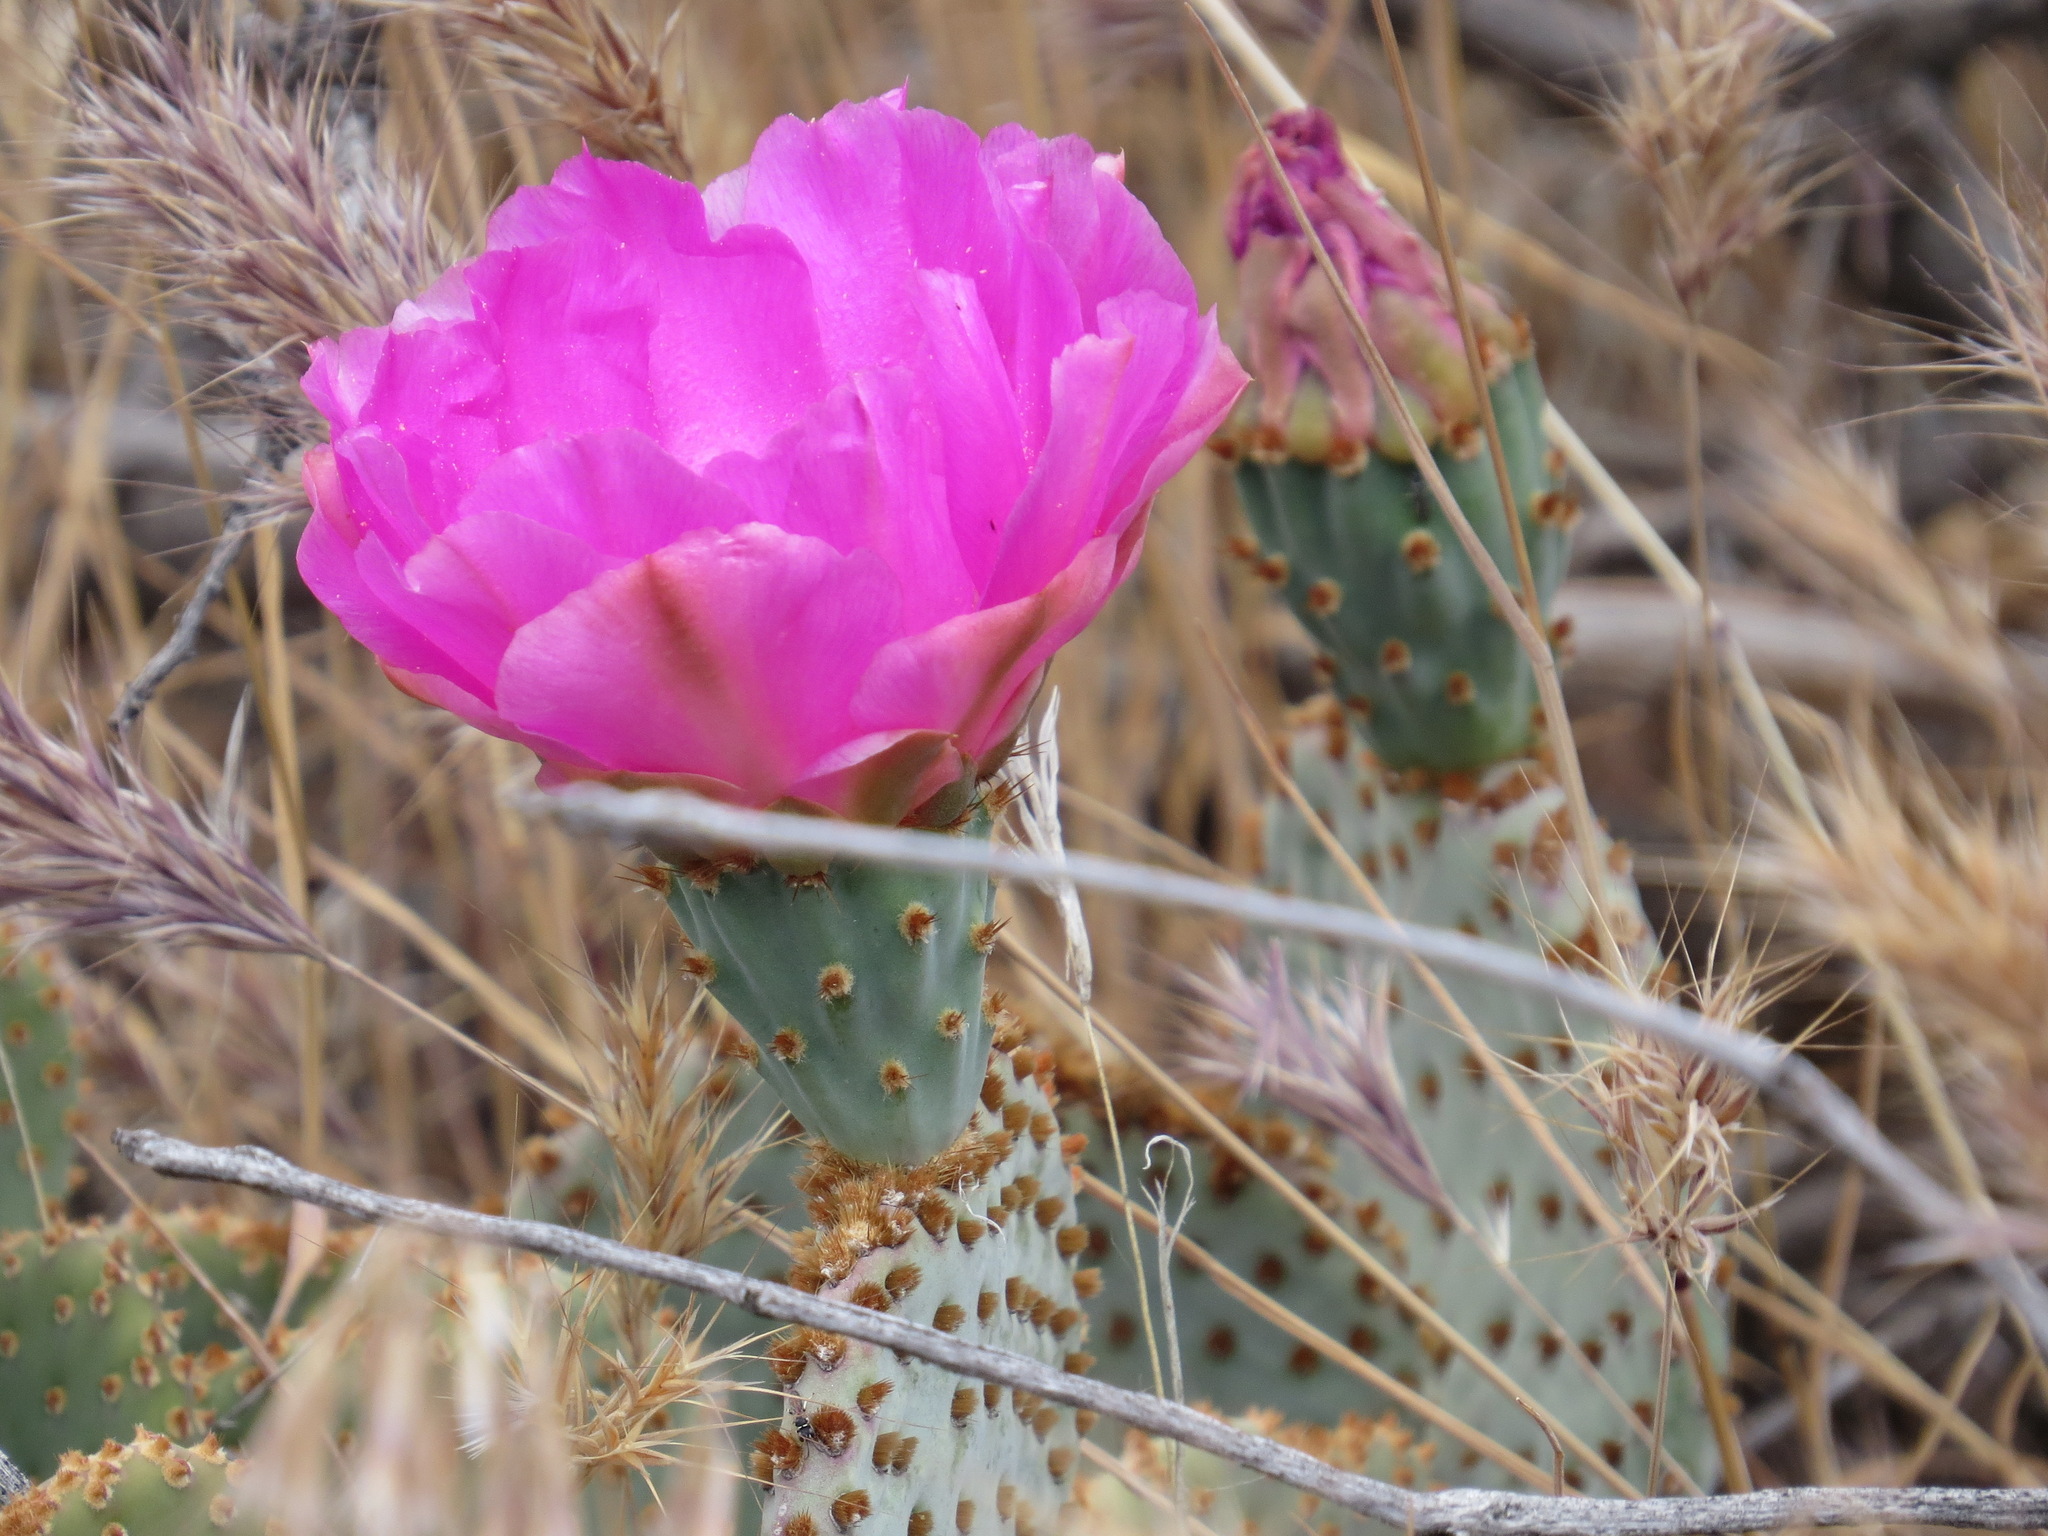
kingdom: Plantae
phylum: Tracheophyta
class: Magnoliopsida
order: Caryophyllales
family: Cactaceae
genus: Opuntia
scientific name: Opuntia basilaris
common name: Beavertail prickly-pear
